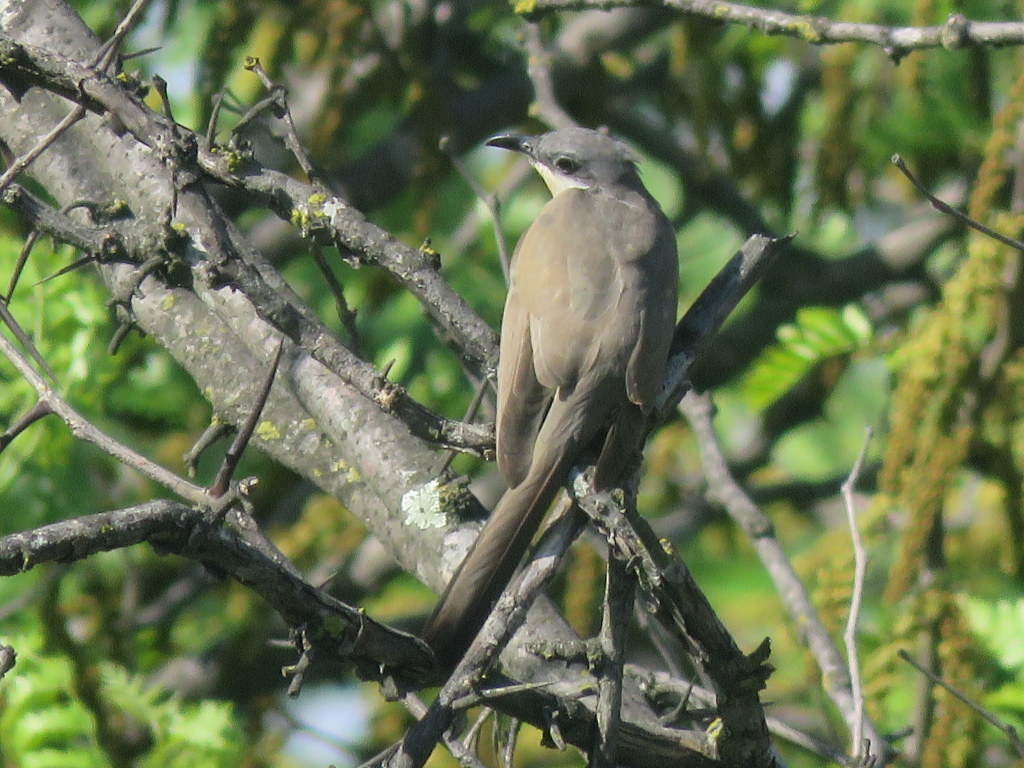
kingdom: Animalia
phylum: Chordata
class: Aves
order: Cuculiformes
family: Cuculidae
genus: Coccyzus
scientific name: Coccyzus melacoryphus
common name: Dark-billed cuckoo
